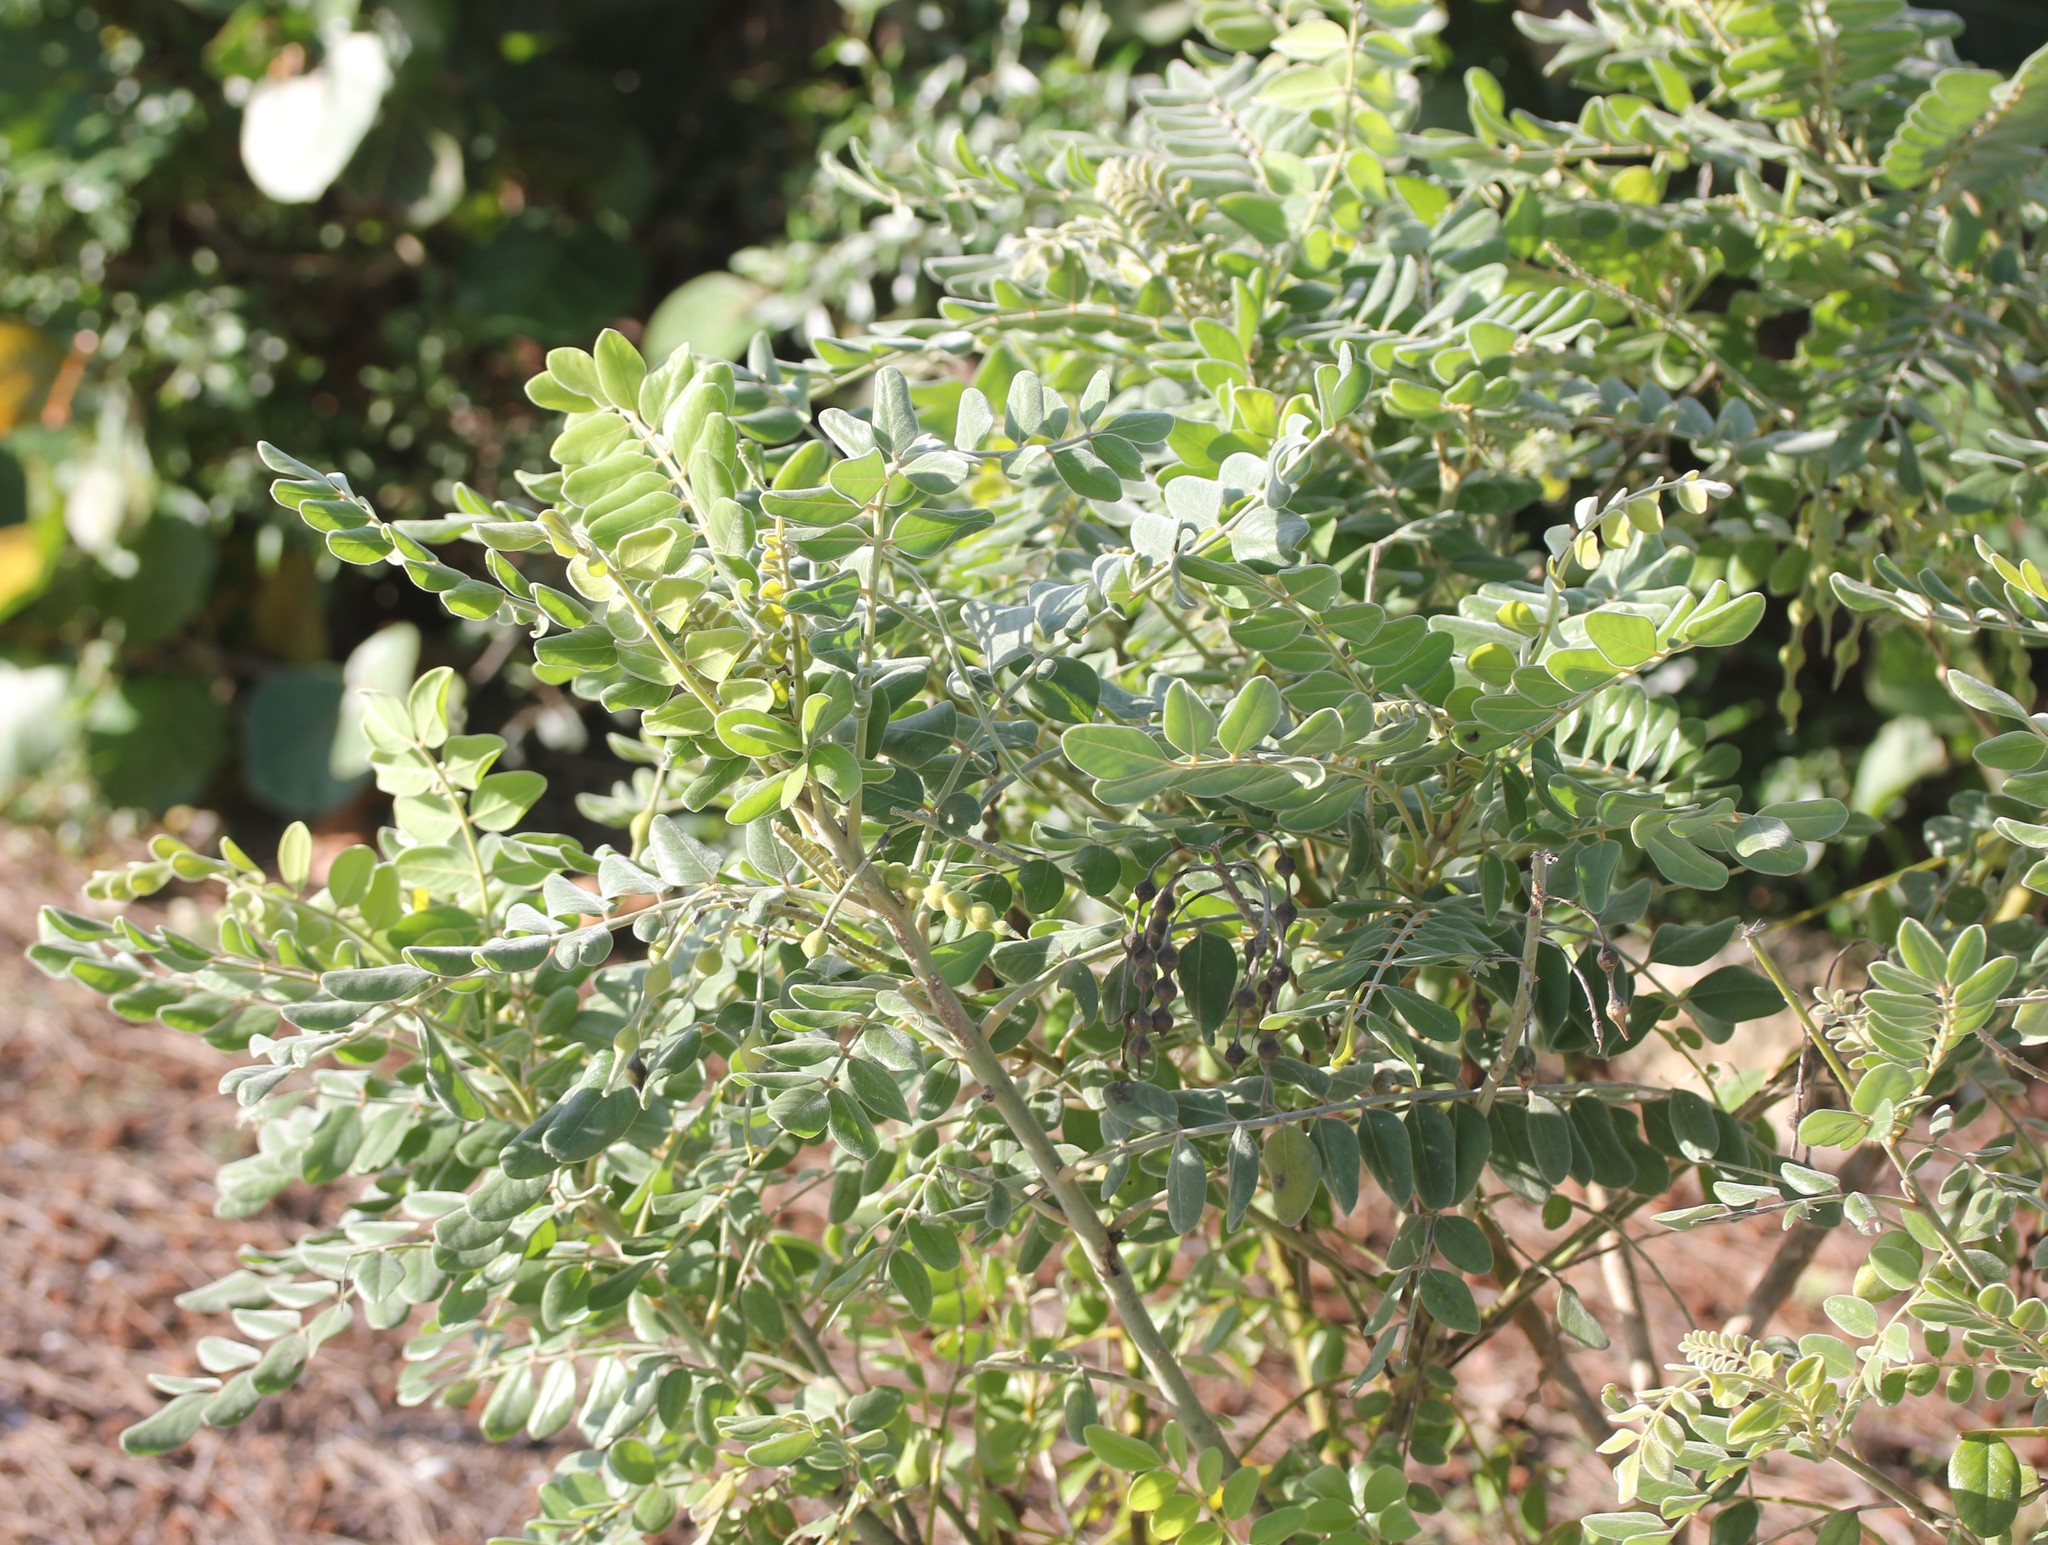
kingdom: Plantae
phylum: Tracheophyta
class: Magnoliopsida
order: Fabales
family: Fabaceae
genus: Sophora
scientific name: Sophora tomentosa
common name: Yellow necklacepod
